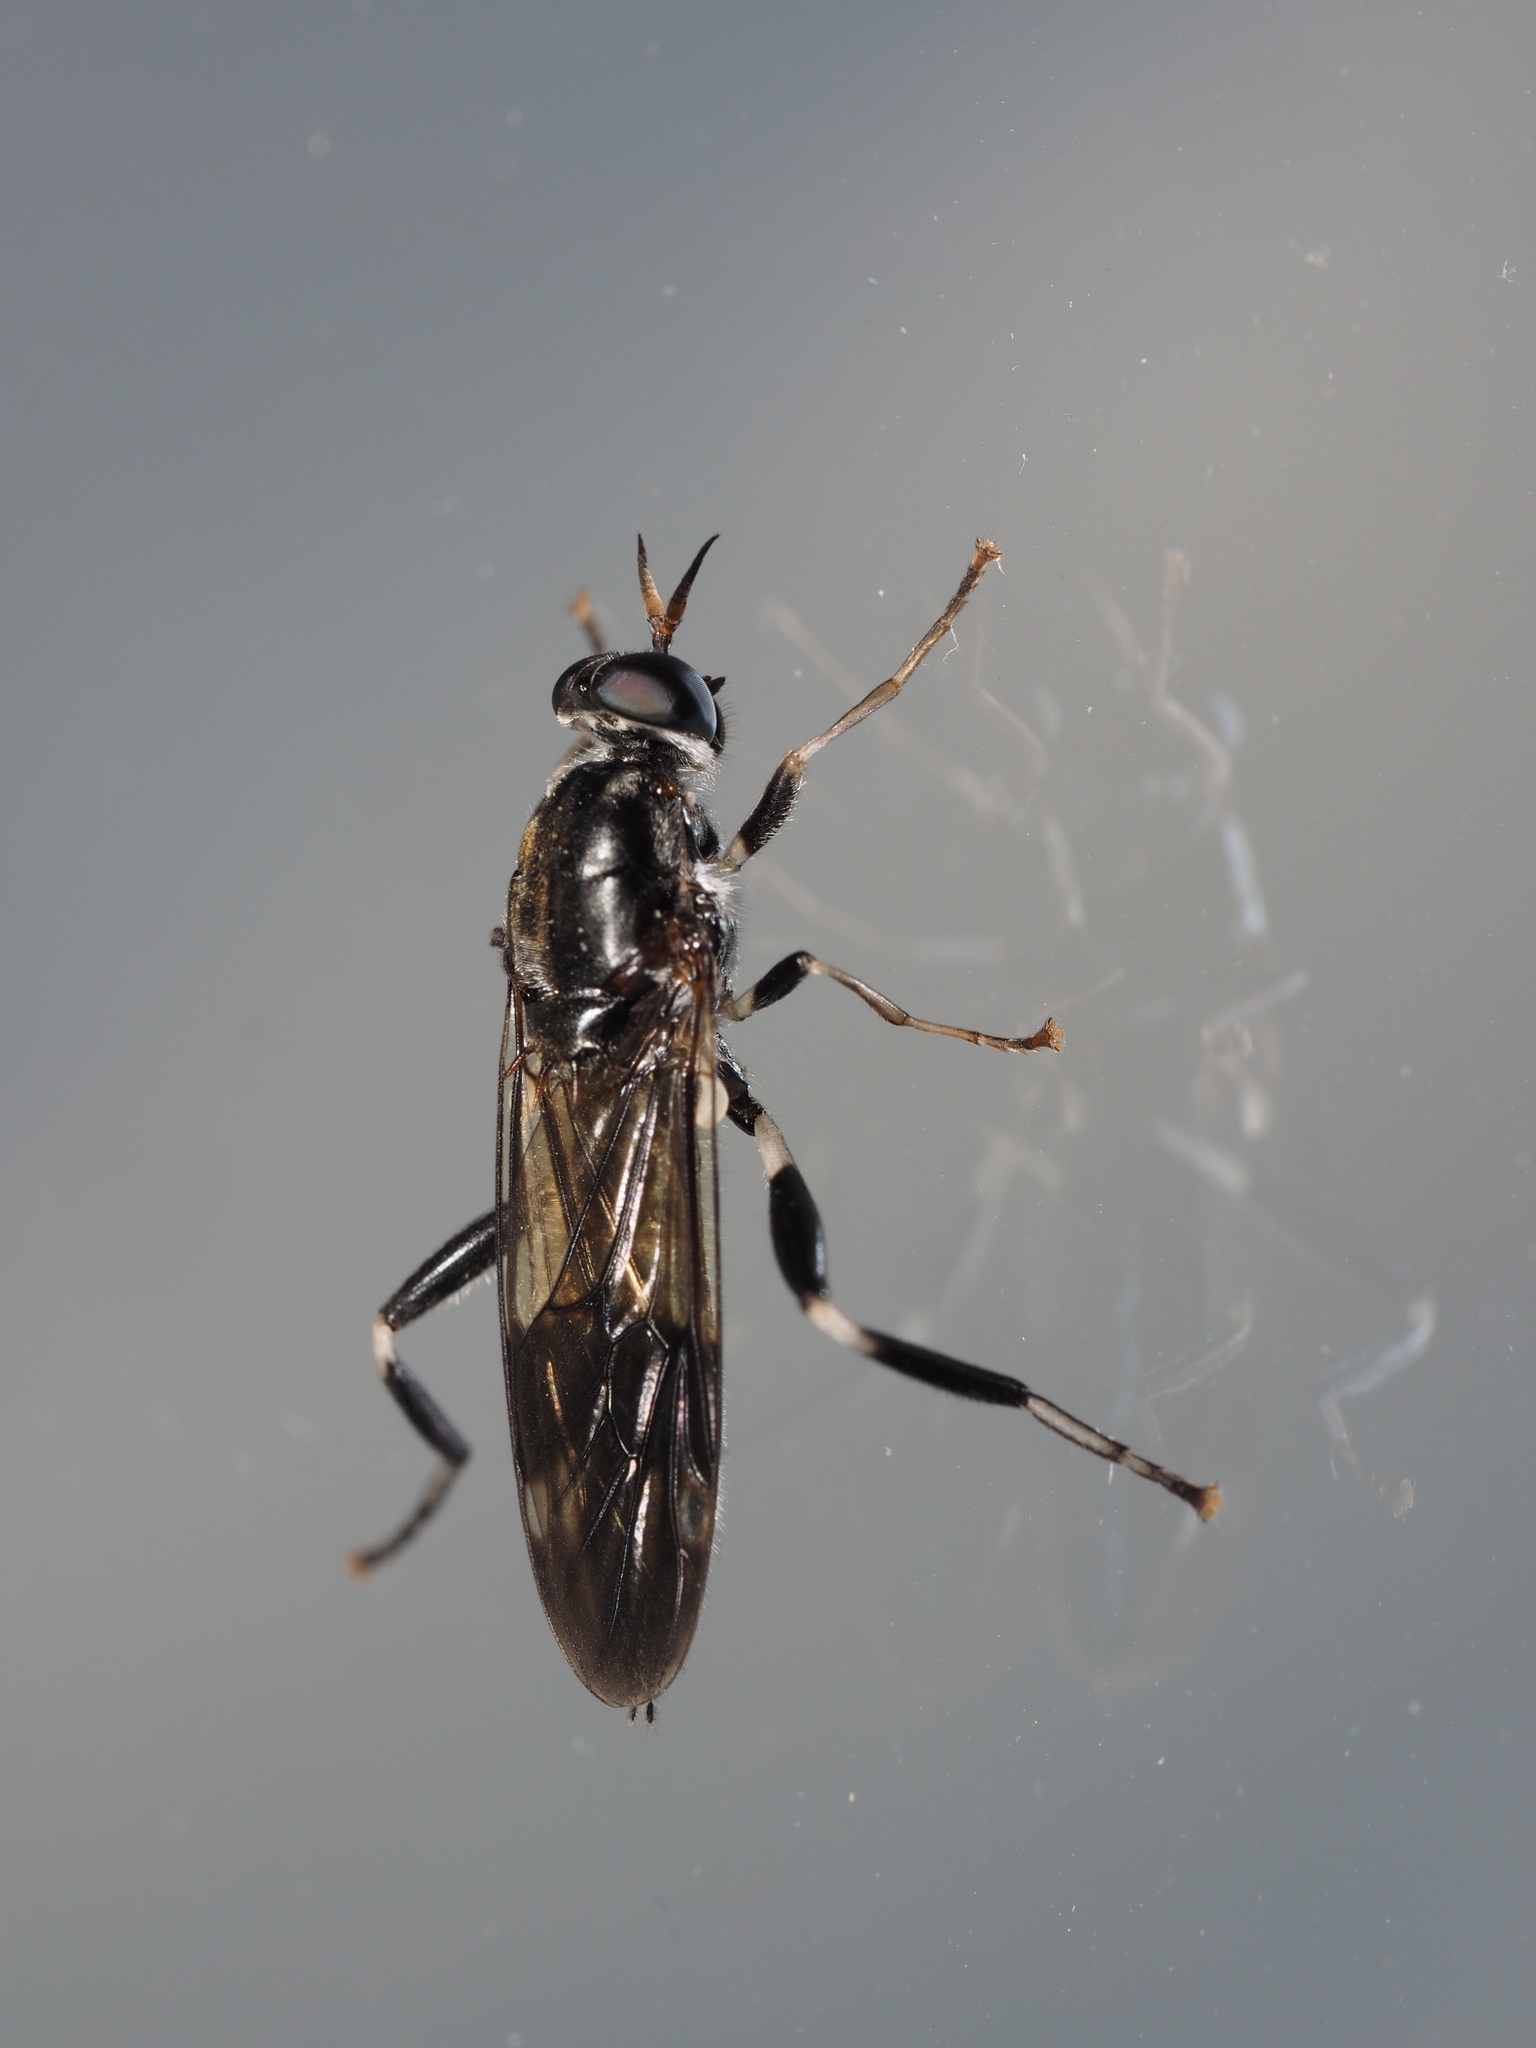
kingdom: Animalia
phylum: Arthropoda
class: Insecta
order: Diptera
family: Stratiomyidae
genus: Exaireta
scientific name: Exaireta spinigera
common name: Blue soldier fly
